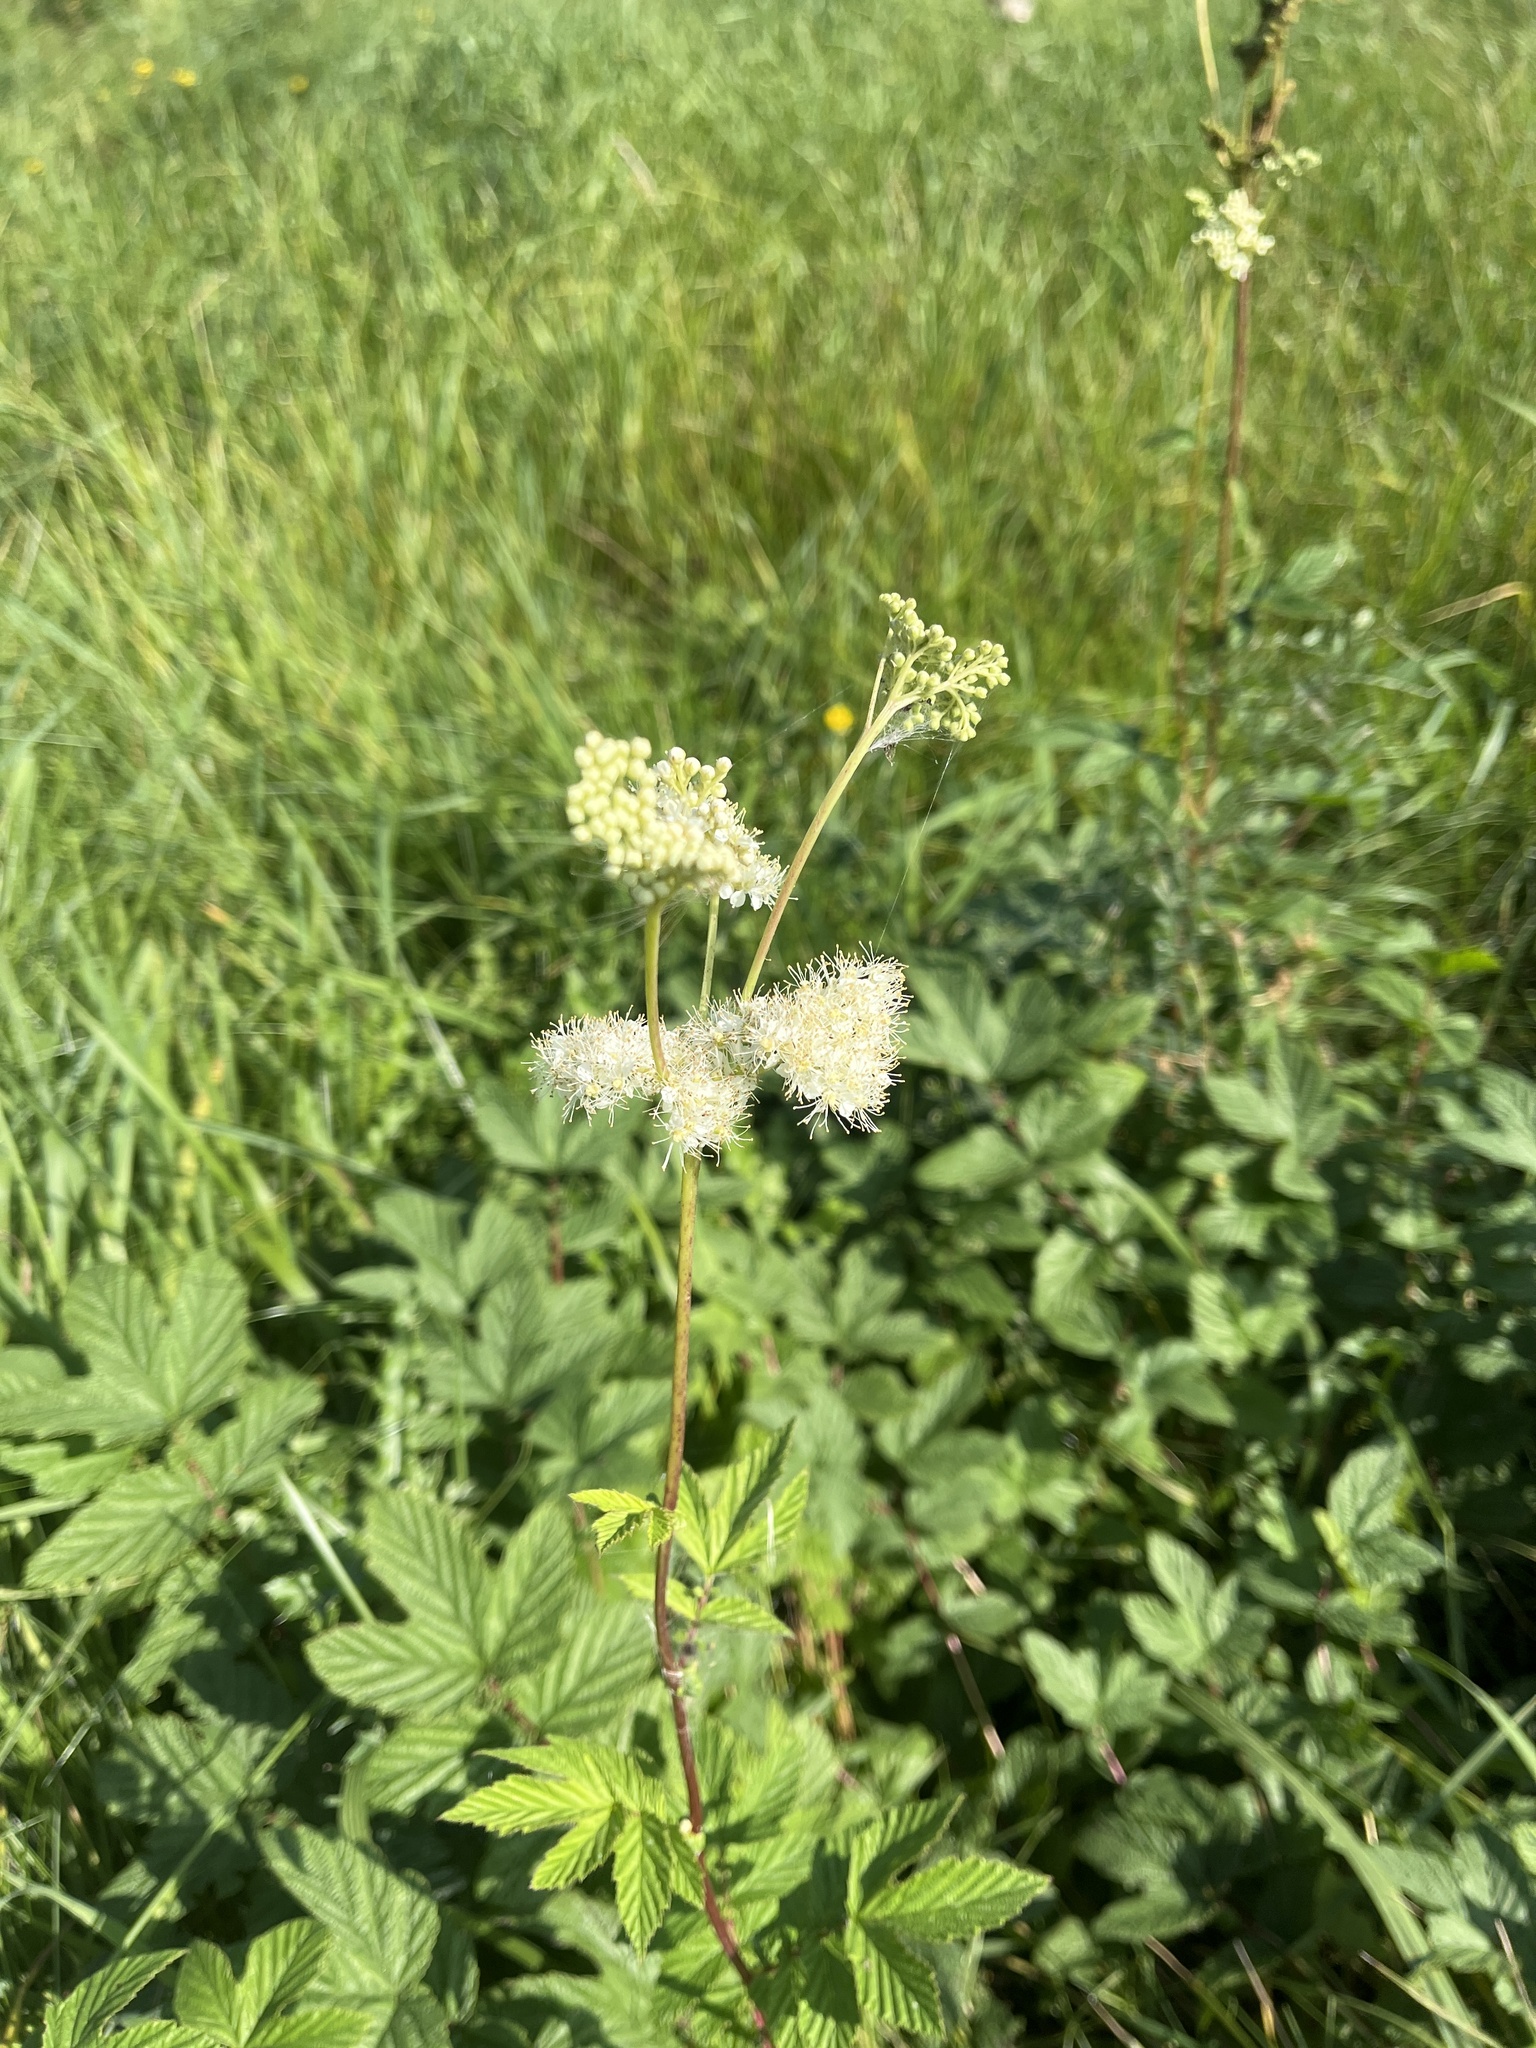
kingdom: Plantae
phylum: Tracheophyta
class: Magnoliopsida
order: Rosales
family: Rosaceae
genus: Filipendula
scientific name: Filipendula ulmaria
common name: Meadowsweet
